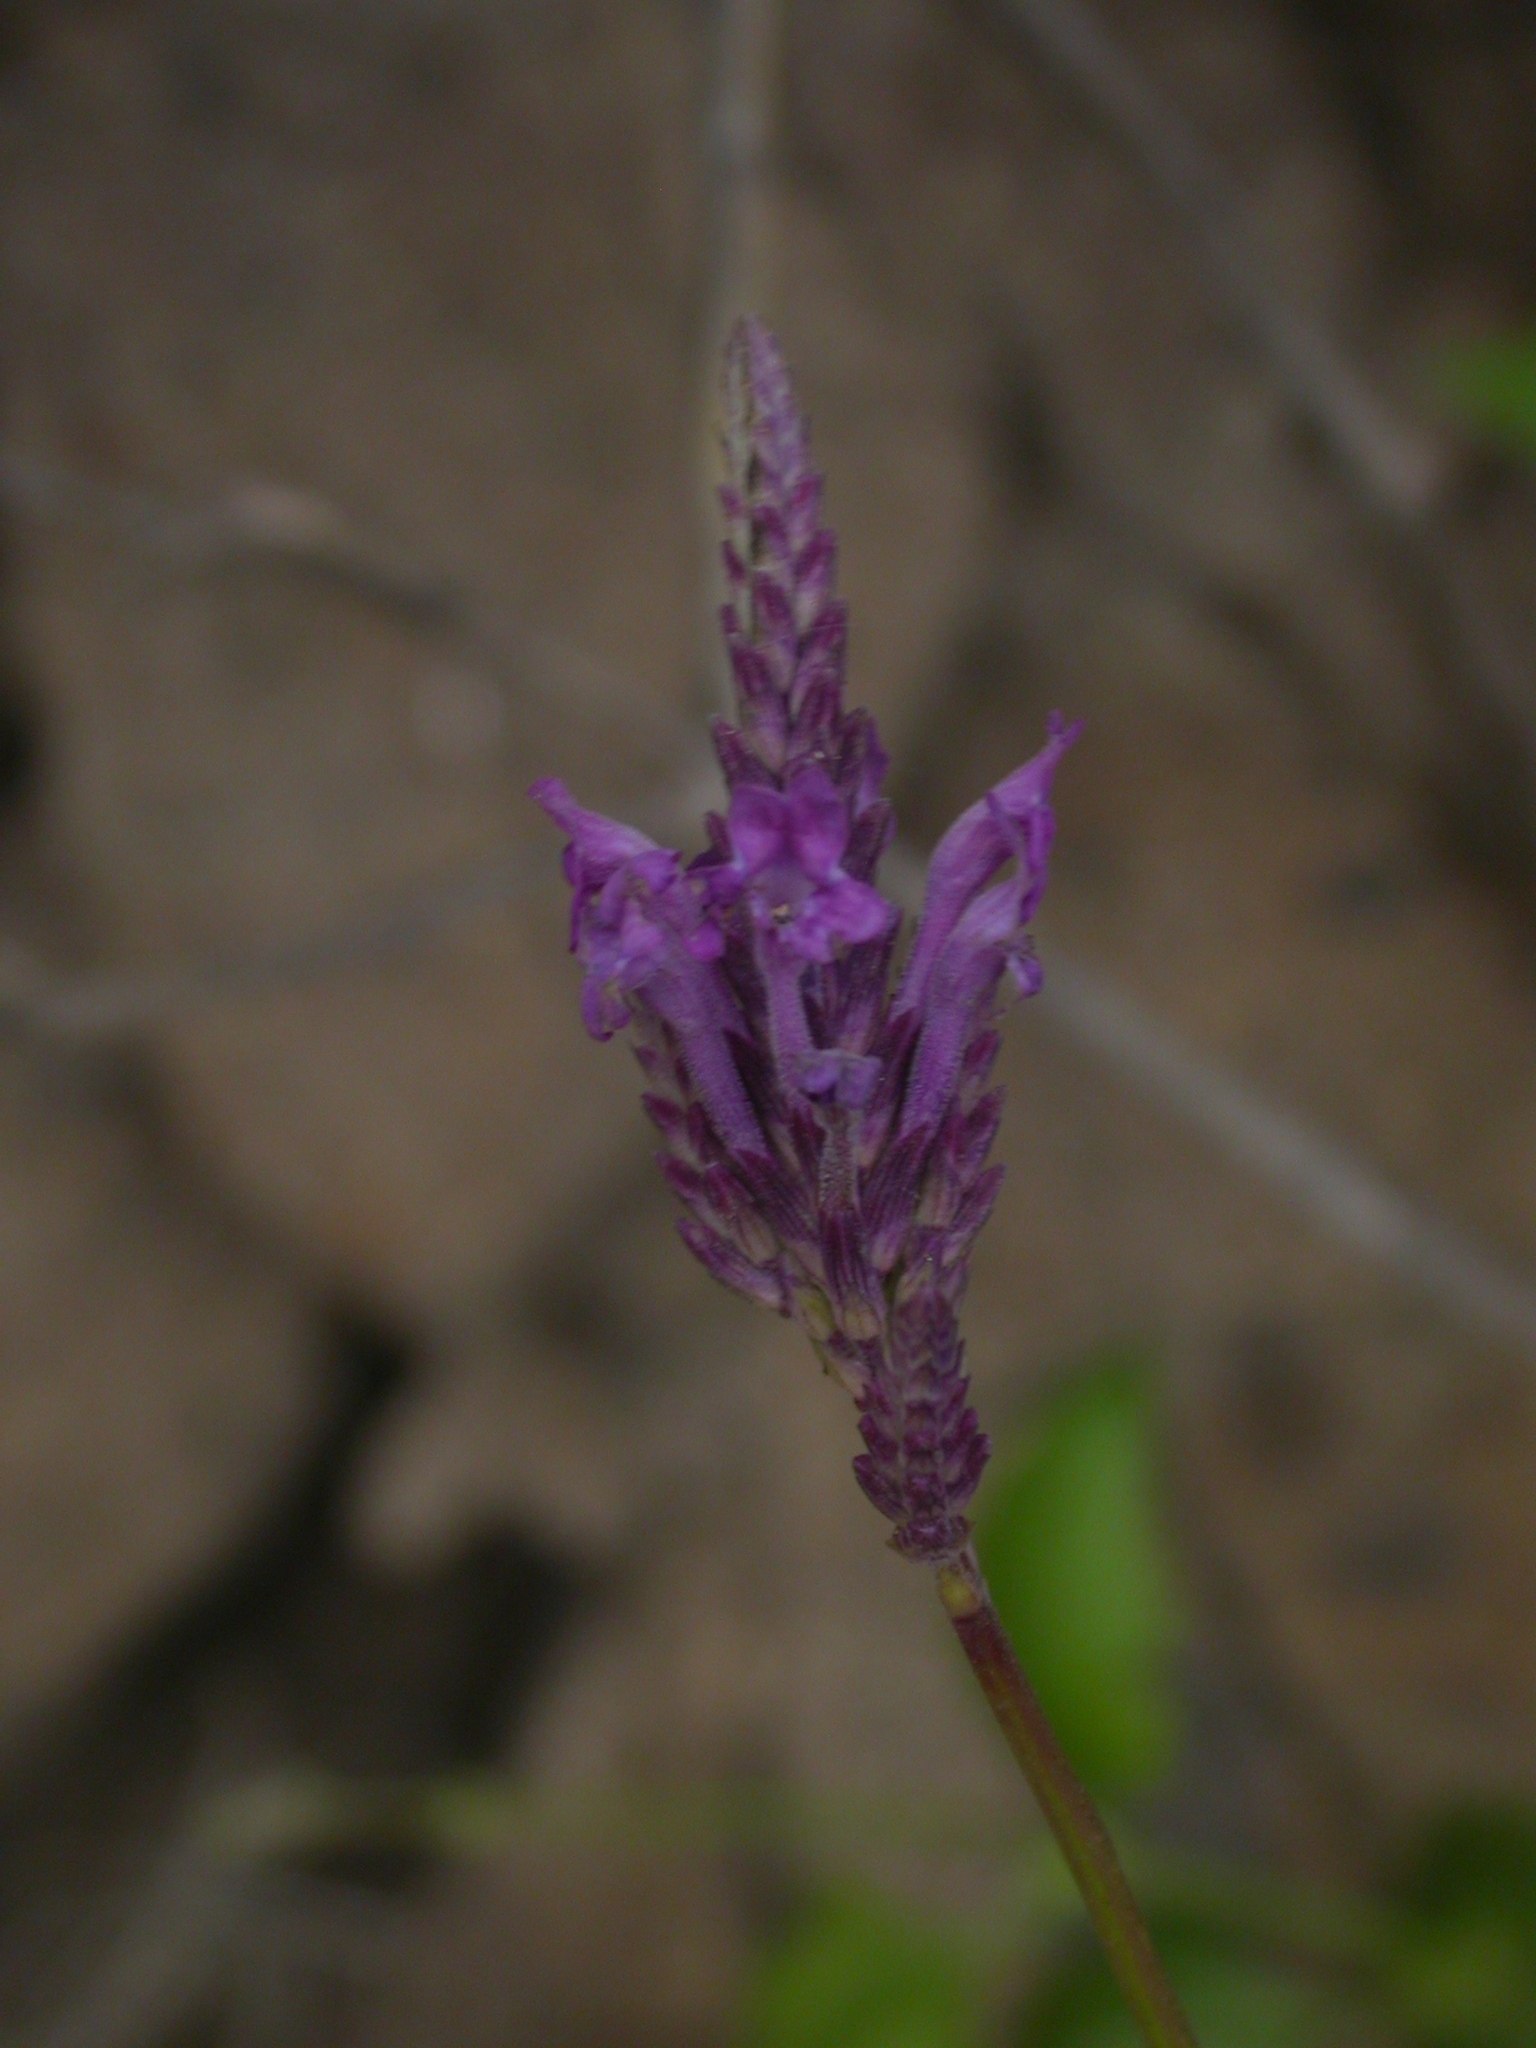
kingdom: Plantae
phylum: Tracheophyta
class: Magnoliopsida
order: Lamiales
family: Lamiaceae
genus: Lavandula
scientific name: Lavandula rotundifolia
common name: Round-leaf lavender
